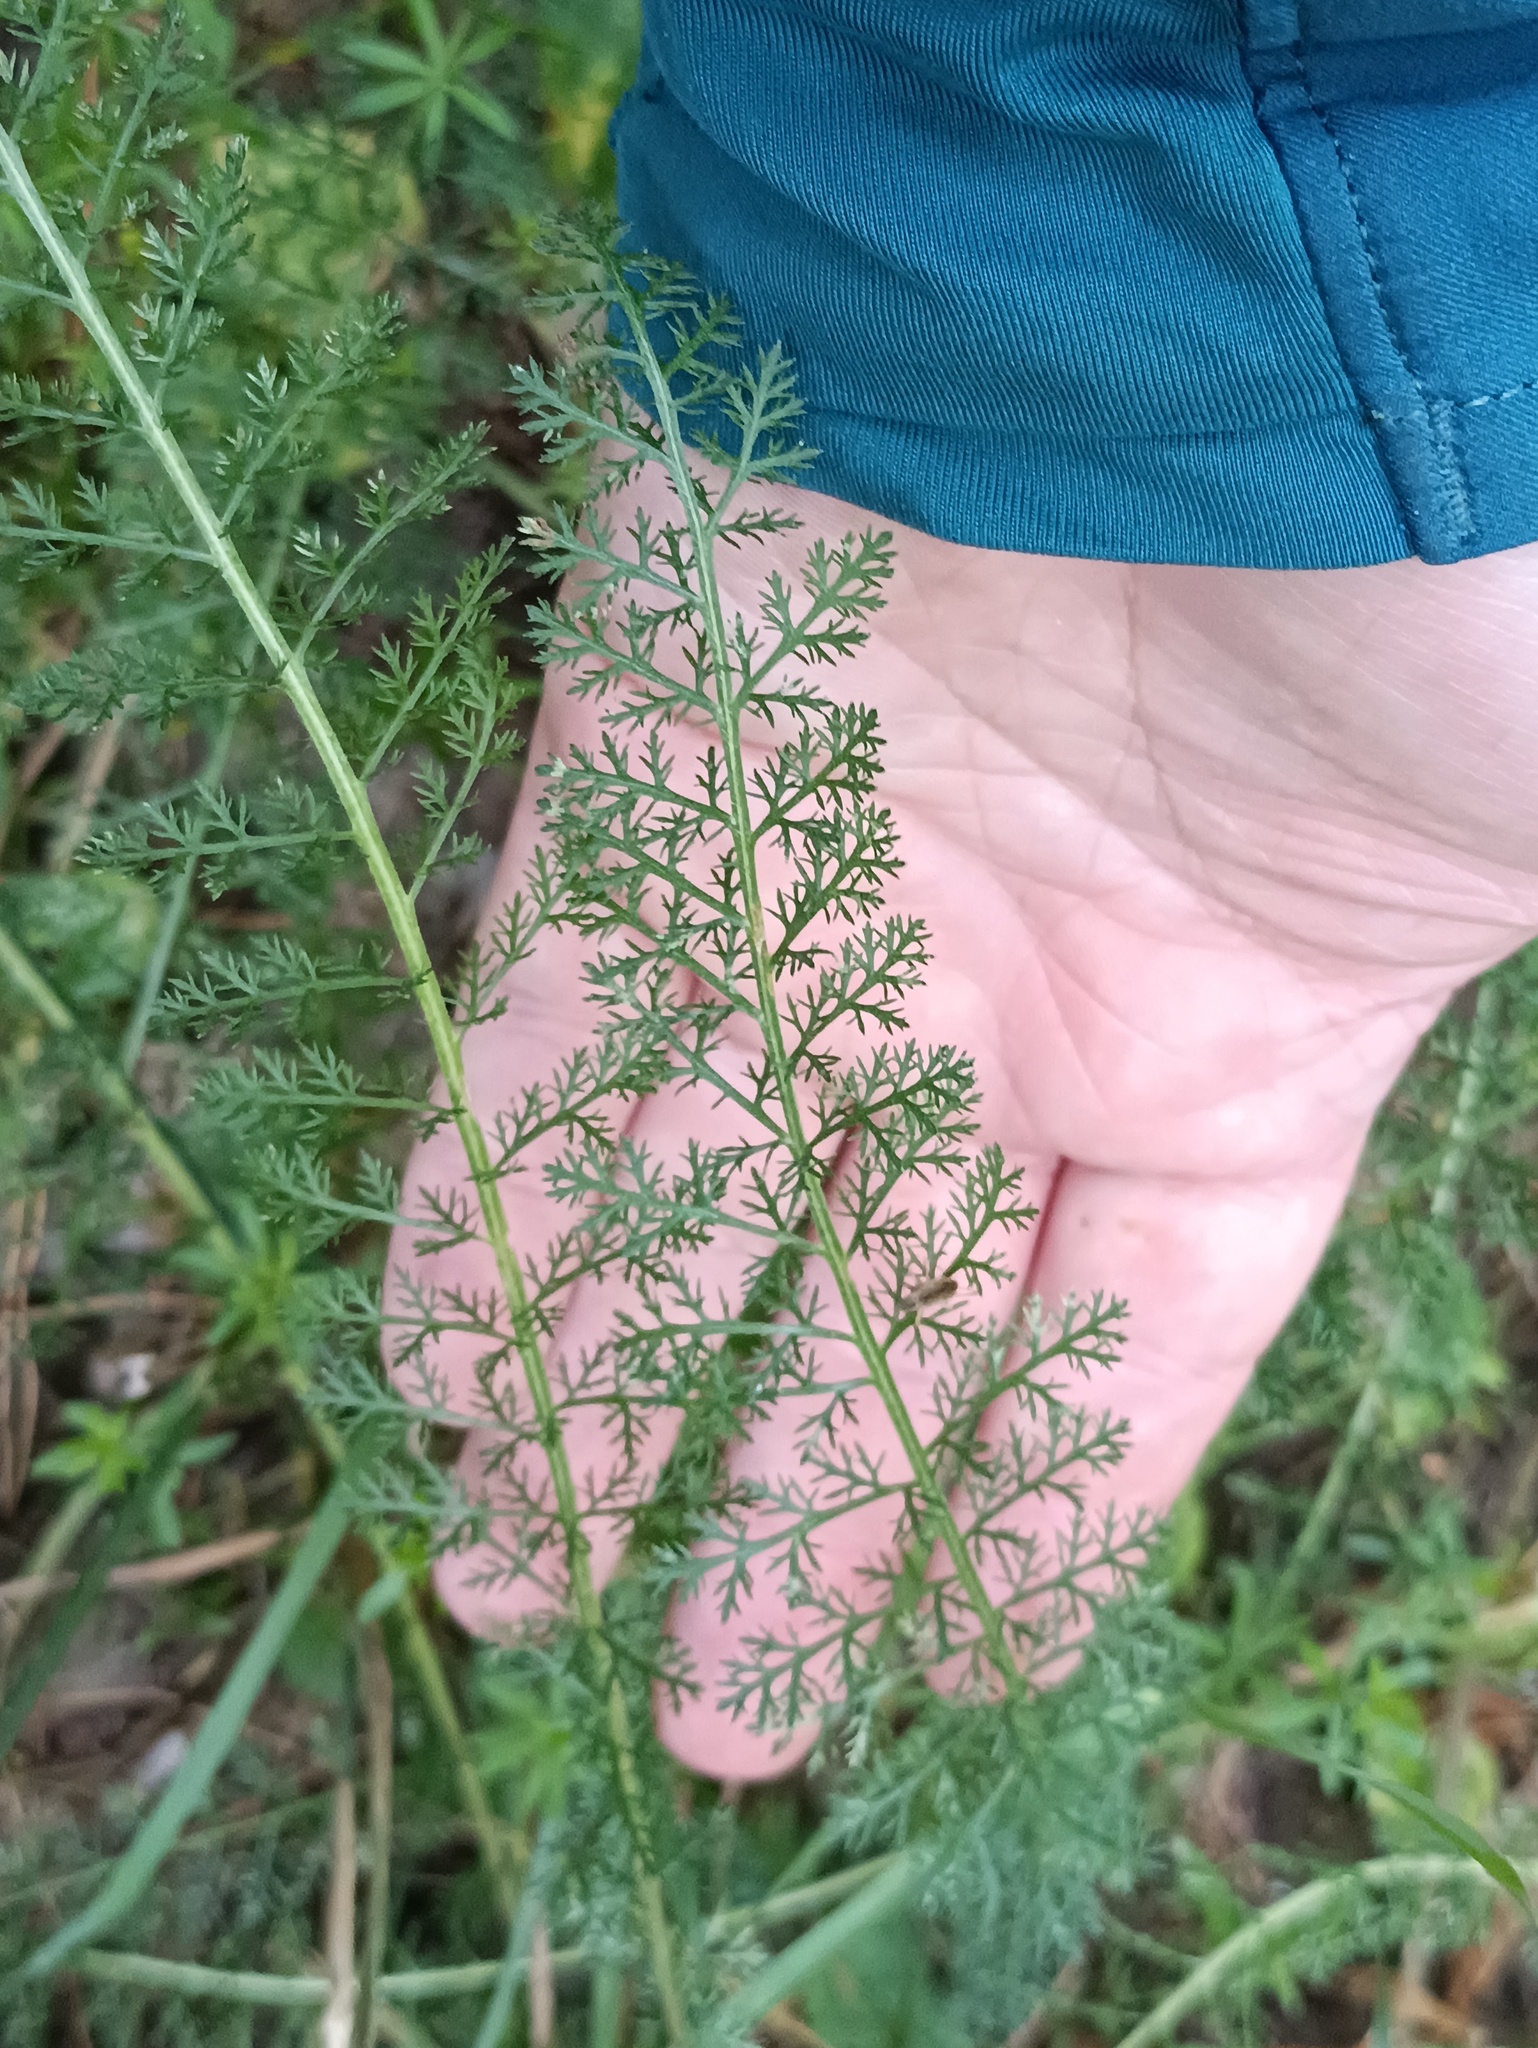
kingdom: Plantae
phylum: Tracheophyta
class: Magnoliopsida
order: Asterales
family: Asteraceae
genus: Achillea
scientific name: Achillea millefolium
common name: Yarrow
